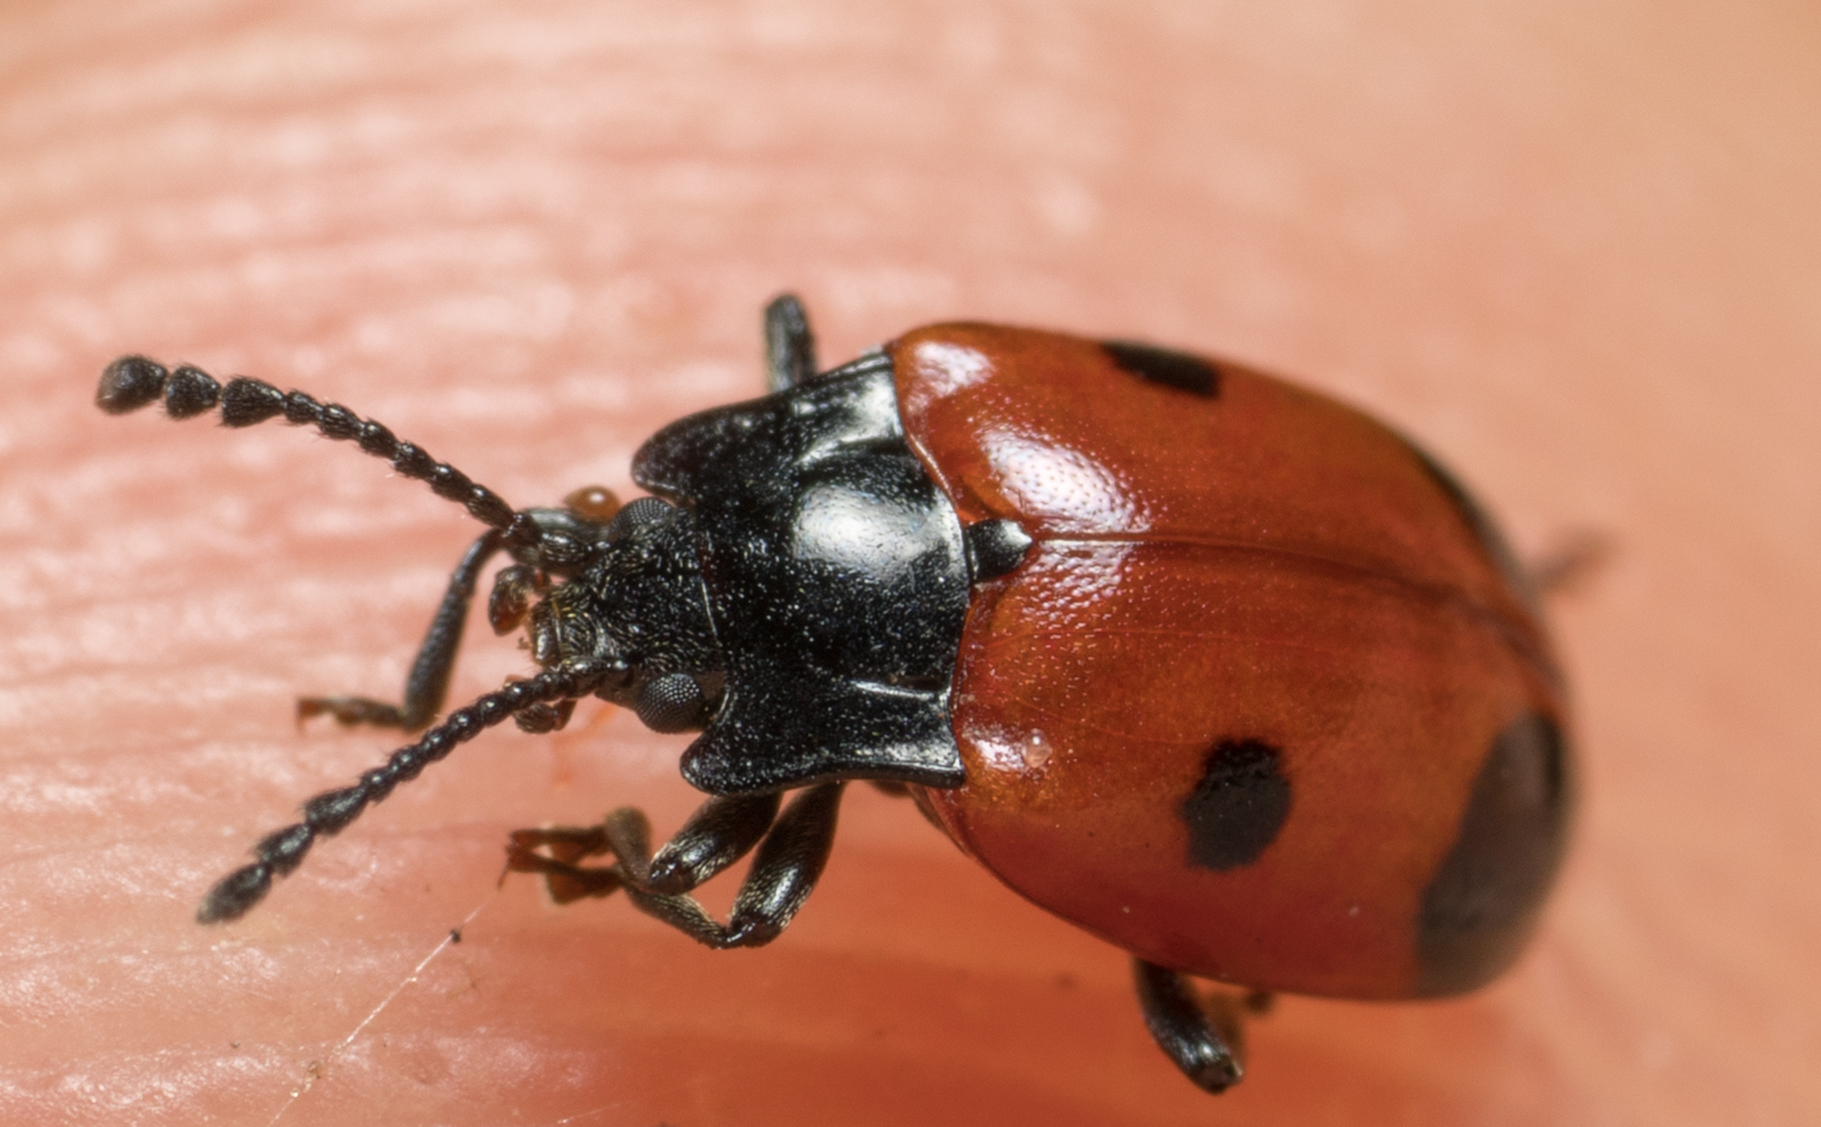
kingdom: Animalia
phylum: Arthropoda
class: Insecta
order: Coleoptera
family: Endomychidae
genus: Endomychus
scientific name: Endomychus biguttatus
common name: Handsome fungus beetle
